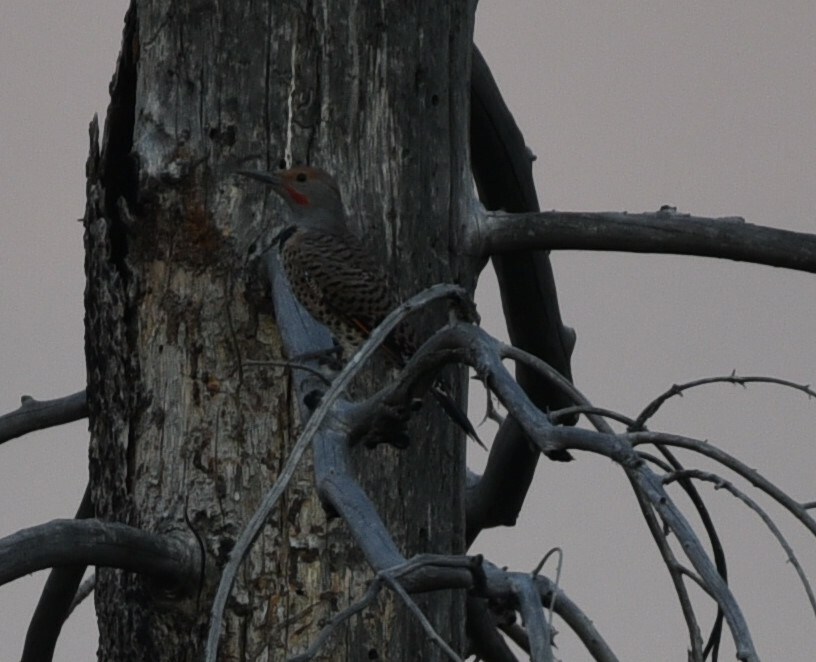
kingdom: Animalia
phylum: Chordata
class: Aves
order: Piciformes
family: Picidae
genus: Colaptes
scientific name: Colaptes auratus
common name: Northern flicker
